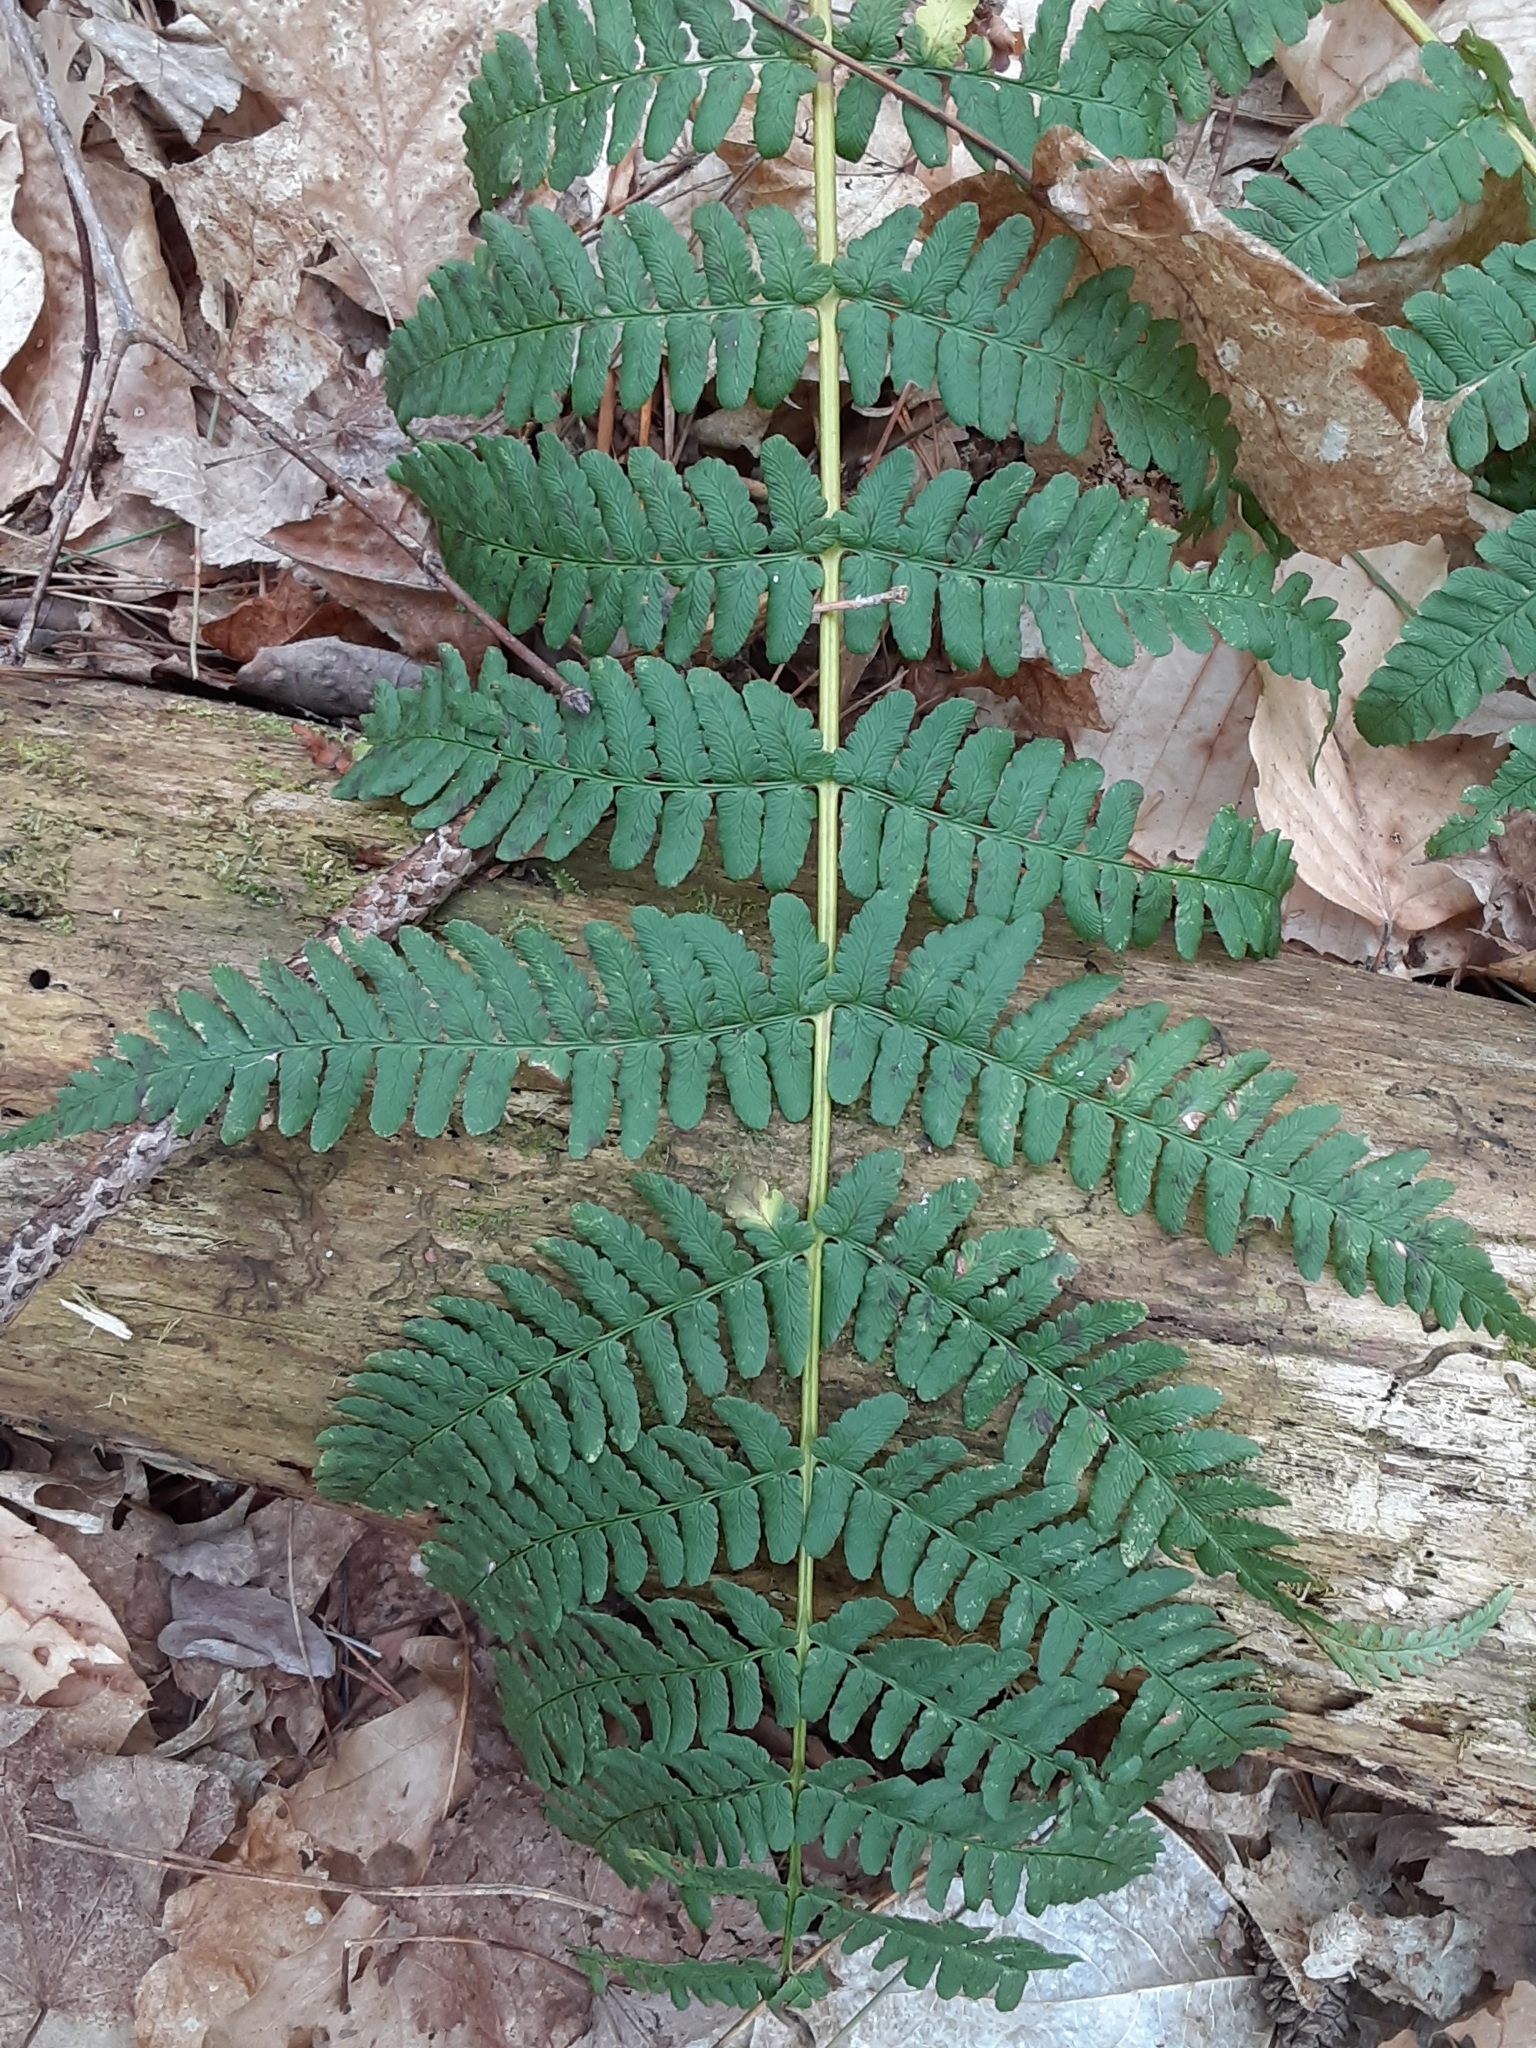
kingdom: Plantae
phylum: Tracheophyta
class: Polypodiopsida
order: Polypodiales
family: Dryopteridaceae
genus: Dryopteris
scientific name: Dryopteris marginalis
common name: Marginal wood fern
